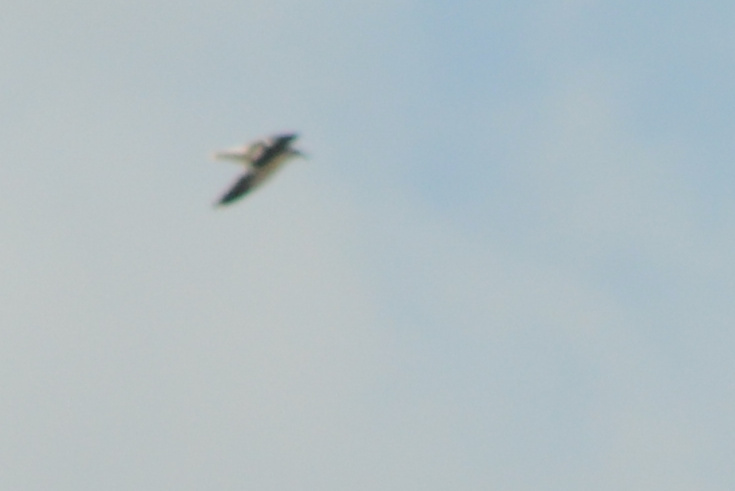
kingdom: Animalia
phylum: Chordata
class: Aves
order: Charadriiformes
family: Laridae
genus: Larus
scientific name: Larus dominicanus
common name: Kelp gull
